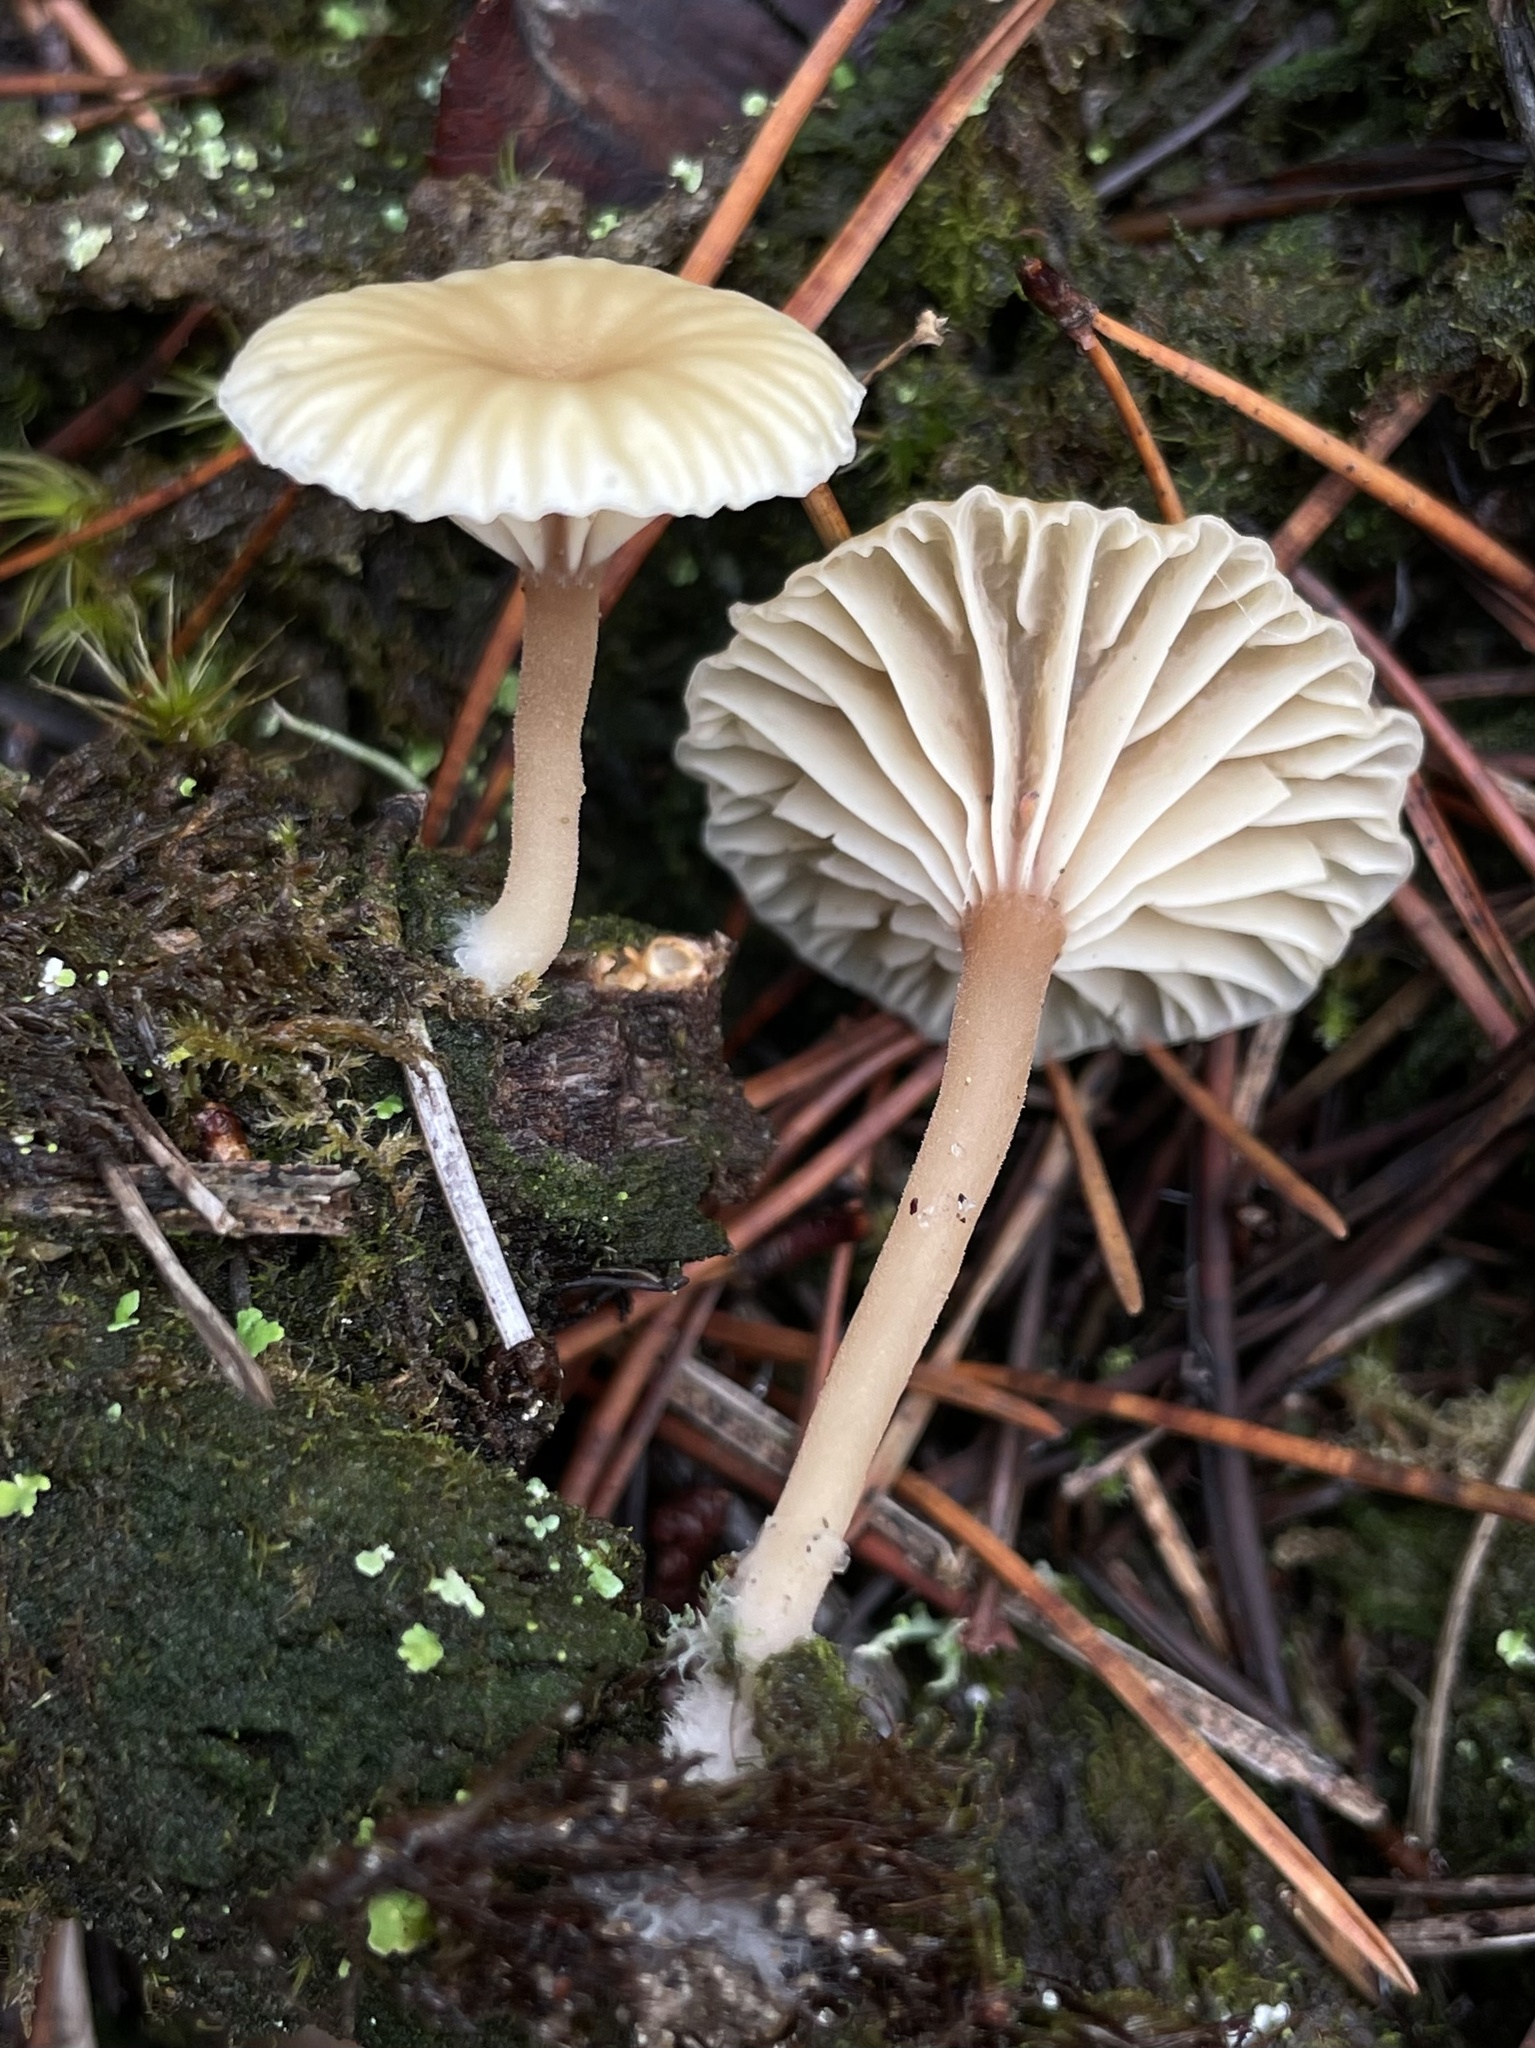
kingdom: Fungi
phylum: Basidiomycota
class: Agaricomycetes
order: Agaricales
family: Hygrophoraceae
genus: Lichenomphalia
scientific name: Lichenomphalia
